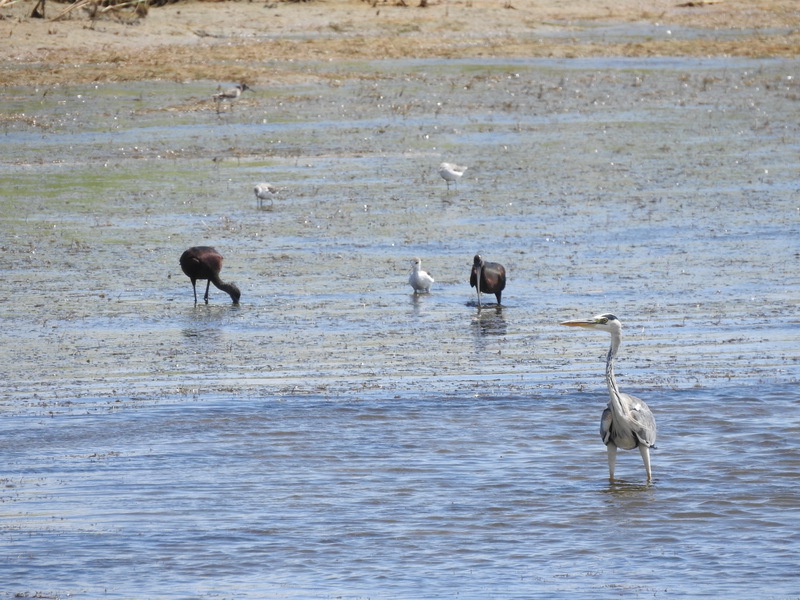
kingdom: Animalia
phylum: Chordata
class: Aves
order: Pelecaniformes
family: Ardeidae
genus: Ardea
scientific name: Ardea cinerea
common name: Grey heron
